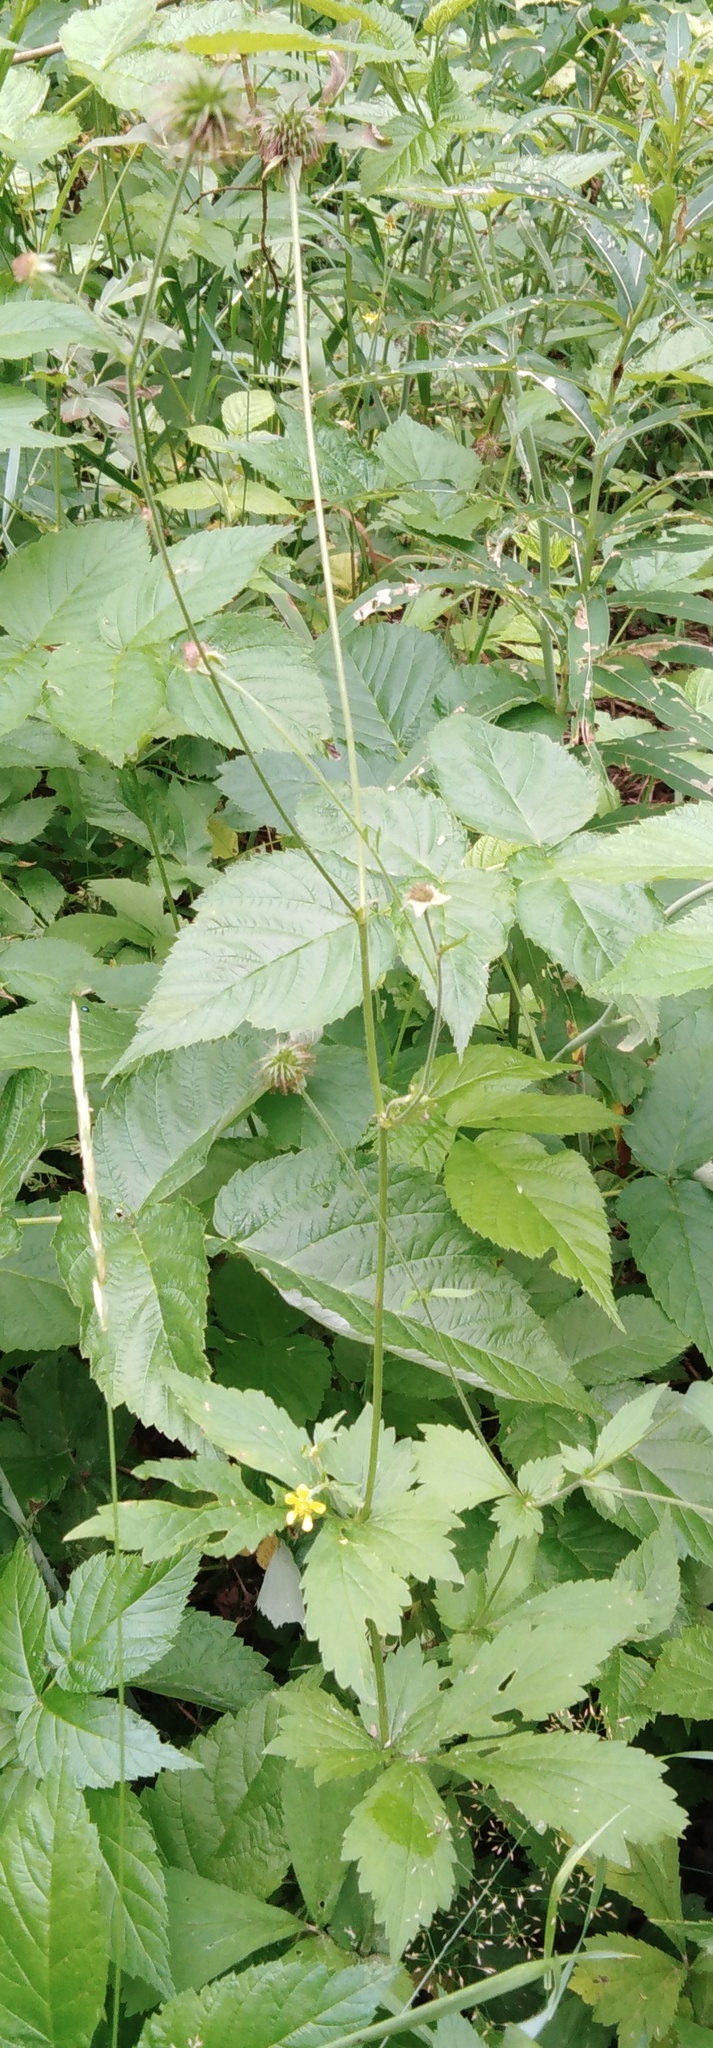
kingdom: Plantae
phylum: Tracheophyta
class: Magnoliopsida
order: Rosales
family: Rosaceae
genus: Geum
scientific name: Geum urbanum
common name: Wood avens
